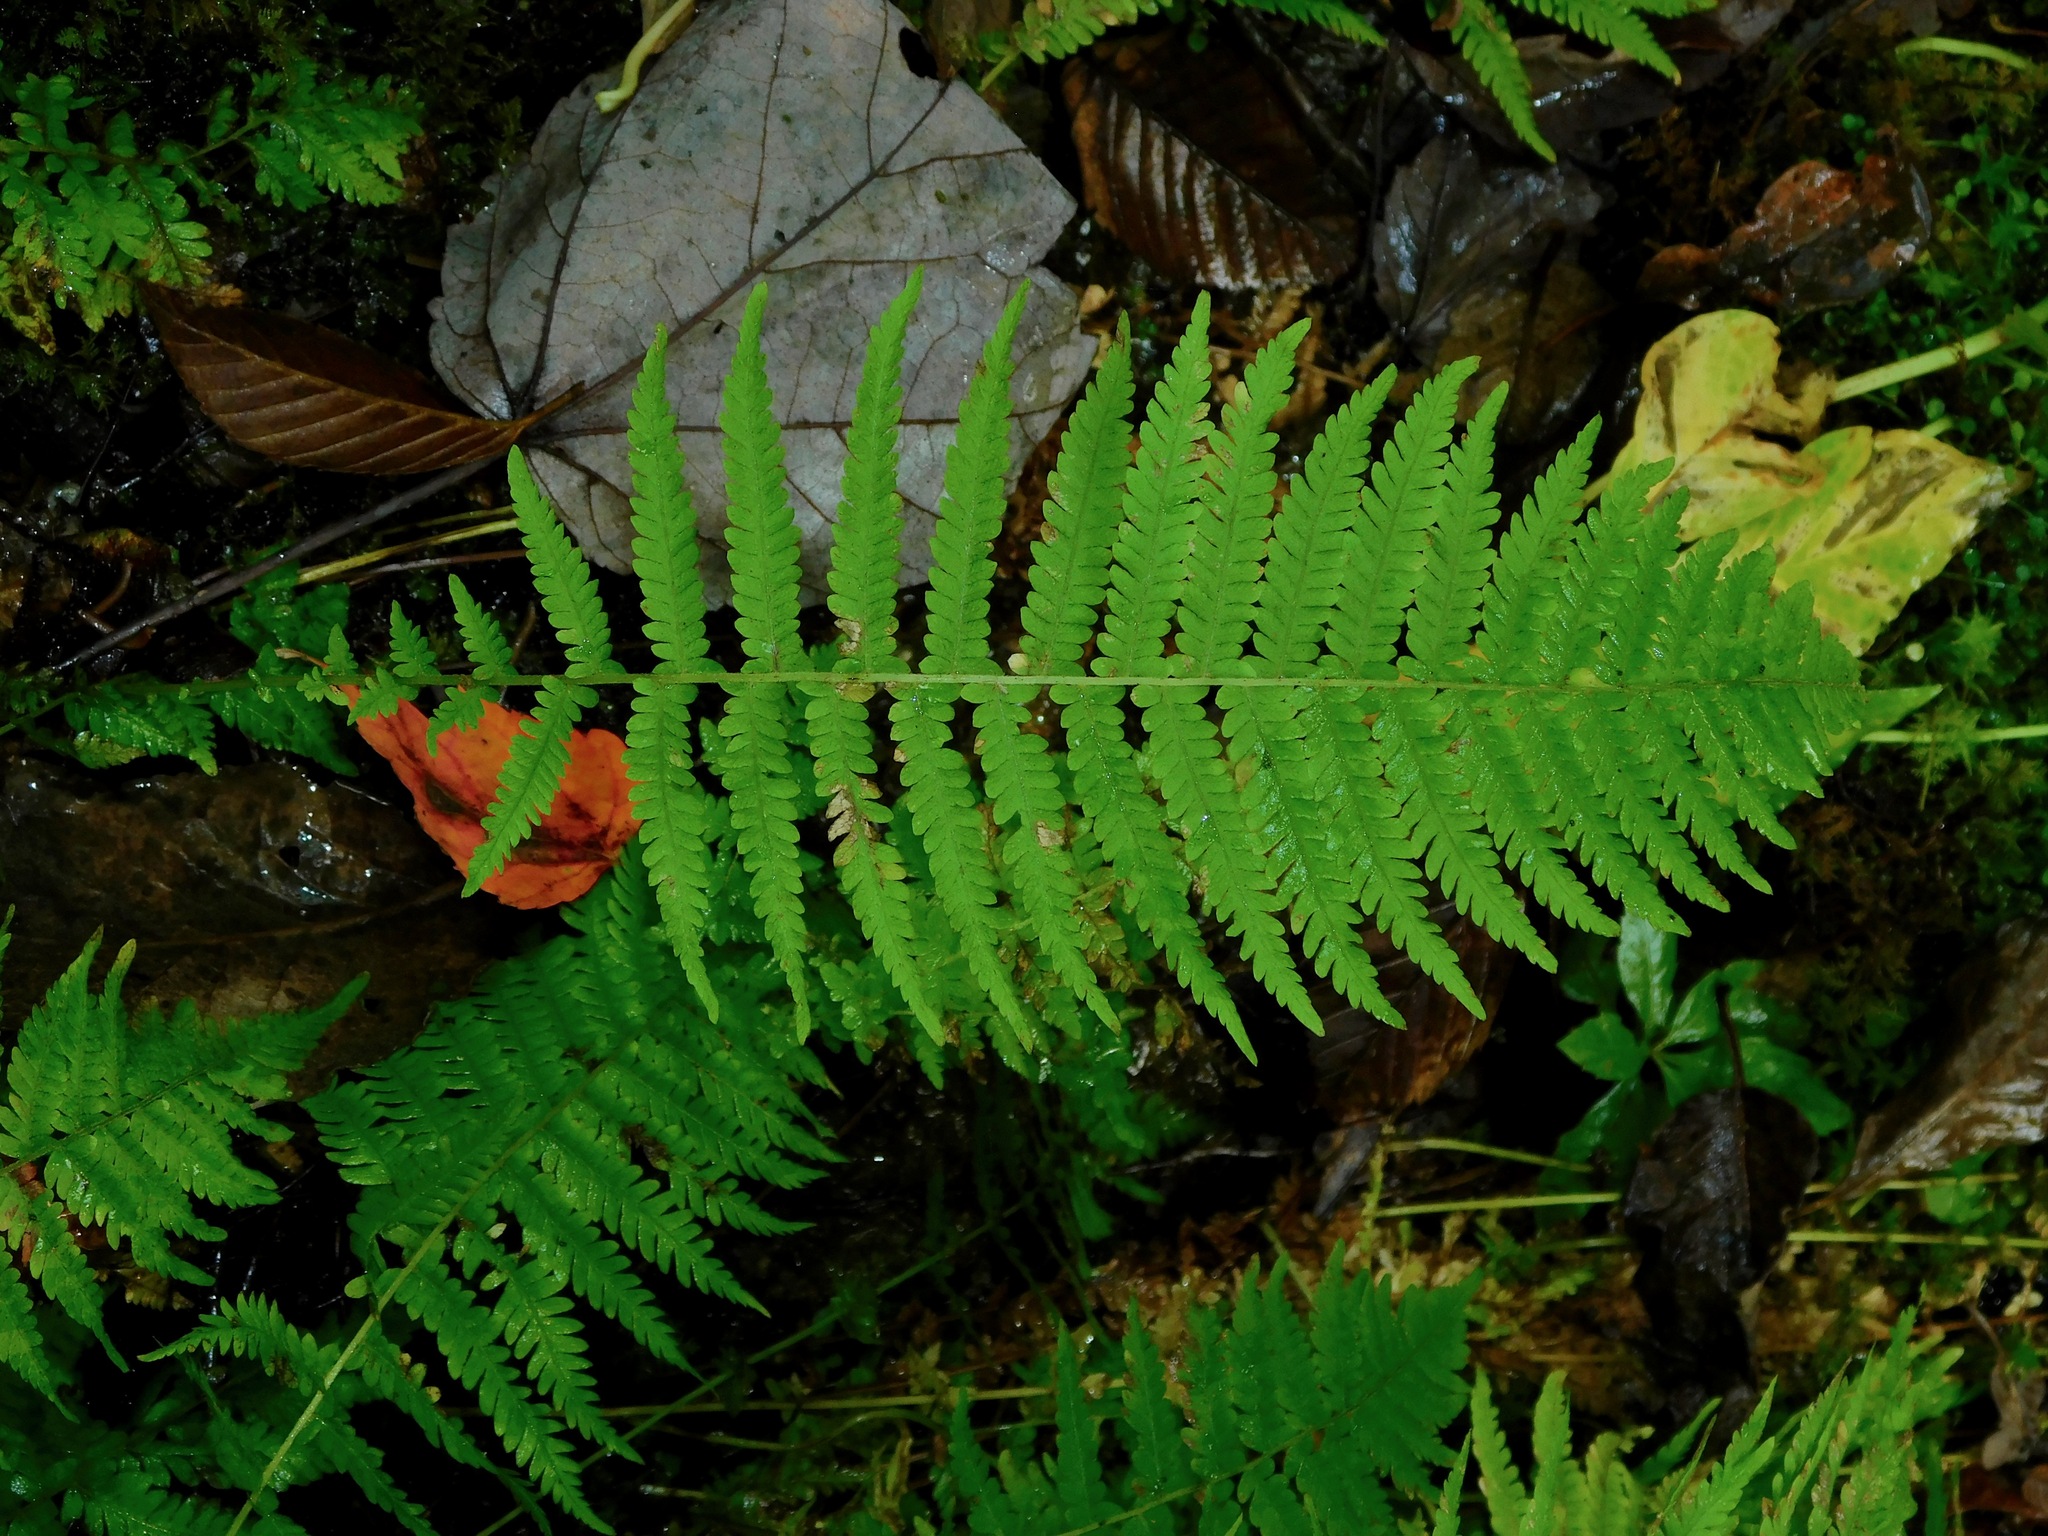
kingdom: Plantae
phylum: Tracheophyta
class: Polypodiopsida
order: Polypodiales
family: Thelypteridaceae
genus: Amauropelta
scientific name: Amauropelta noveboracensis
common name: New york fern
